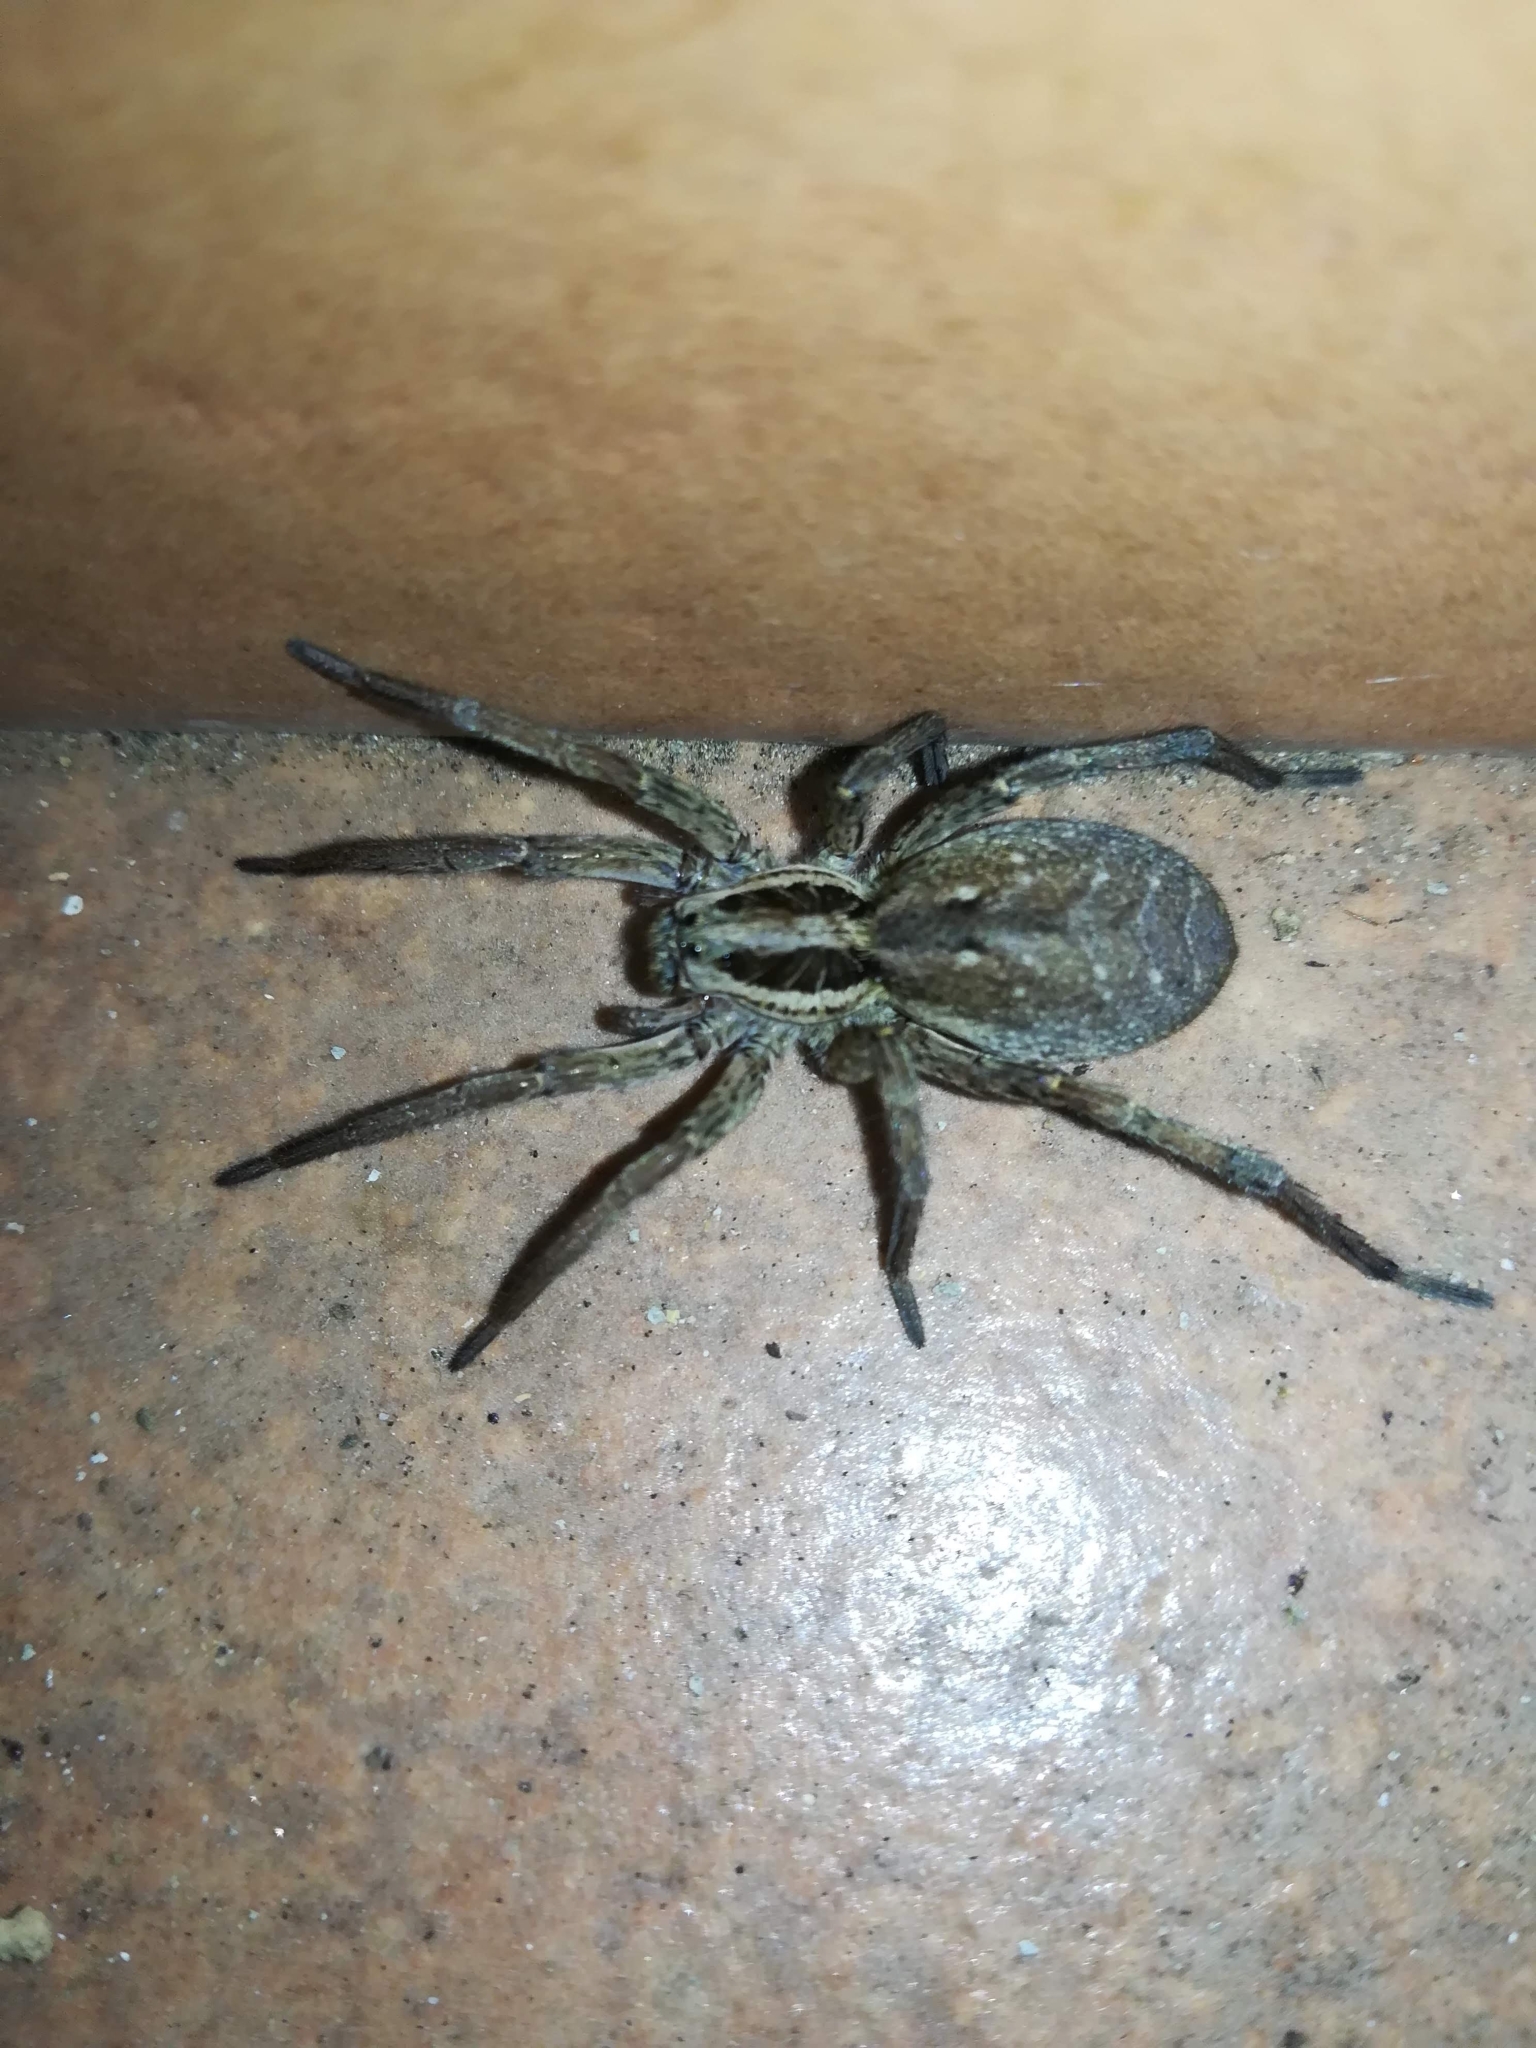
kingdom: Animalia
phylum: Arthropoda
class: Arachnida
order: Araneae
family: Lycosidae
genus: Hogna
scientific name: Hogna radiata
